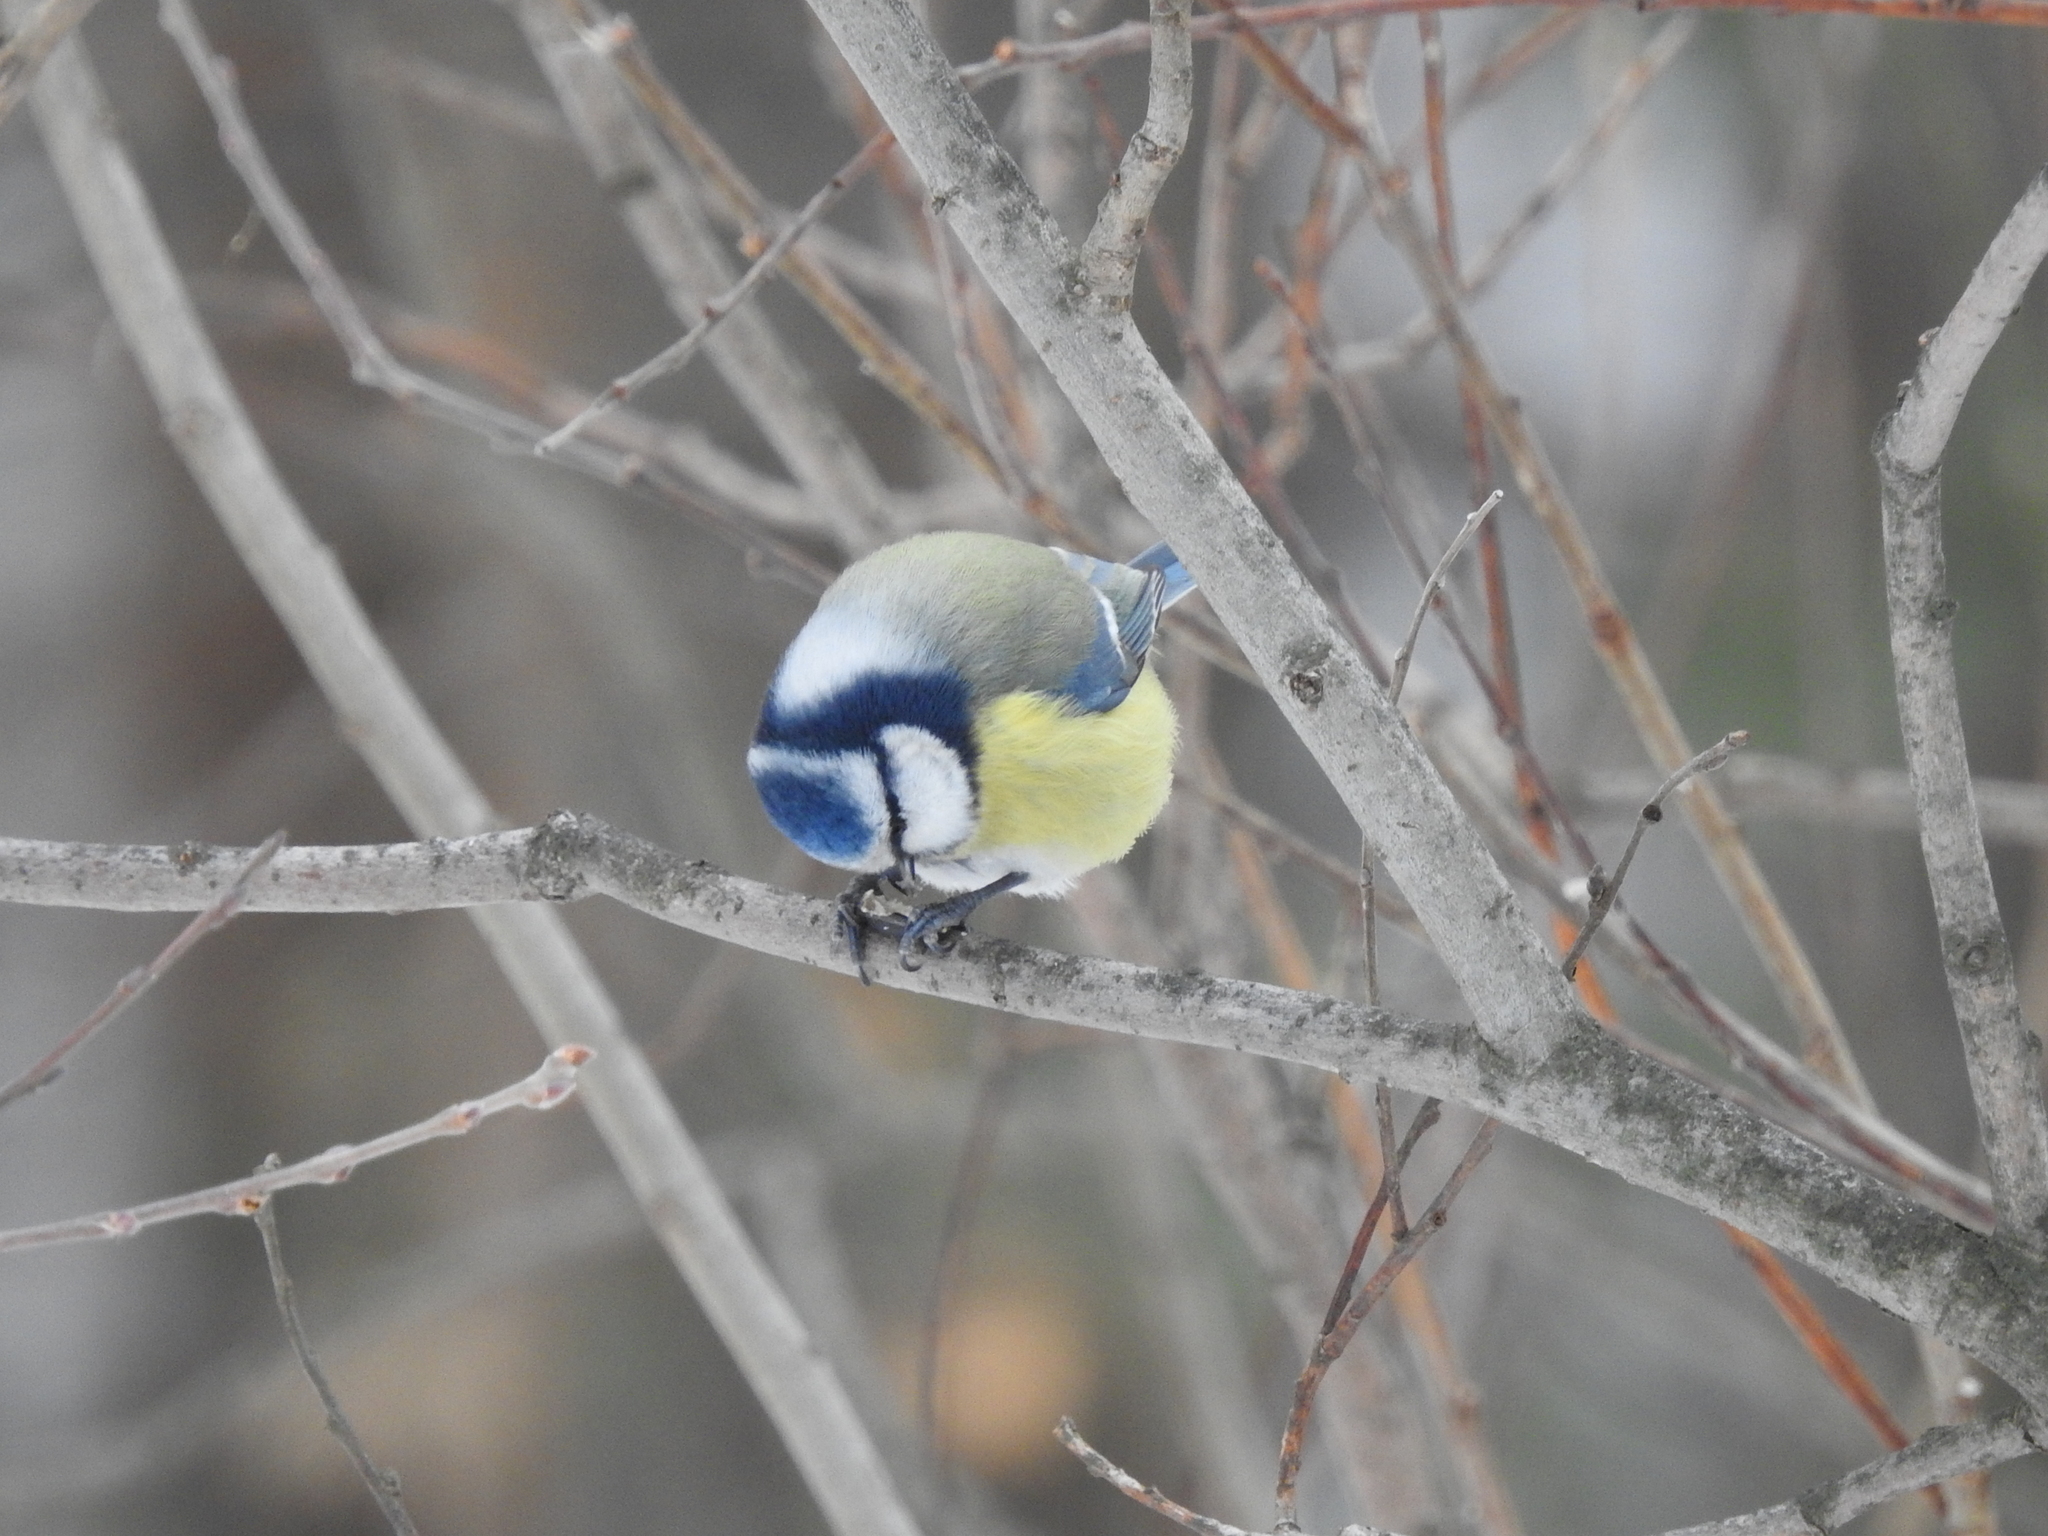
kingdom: Animalia
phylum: Chordata
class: Aves
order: Passeriformes
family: Paridae
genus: Cyanistes
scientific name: Cyanistes caeruleus
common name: Eurasian blue tit
